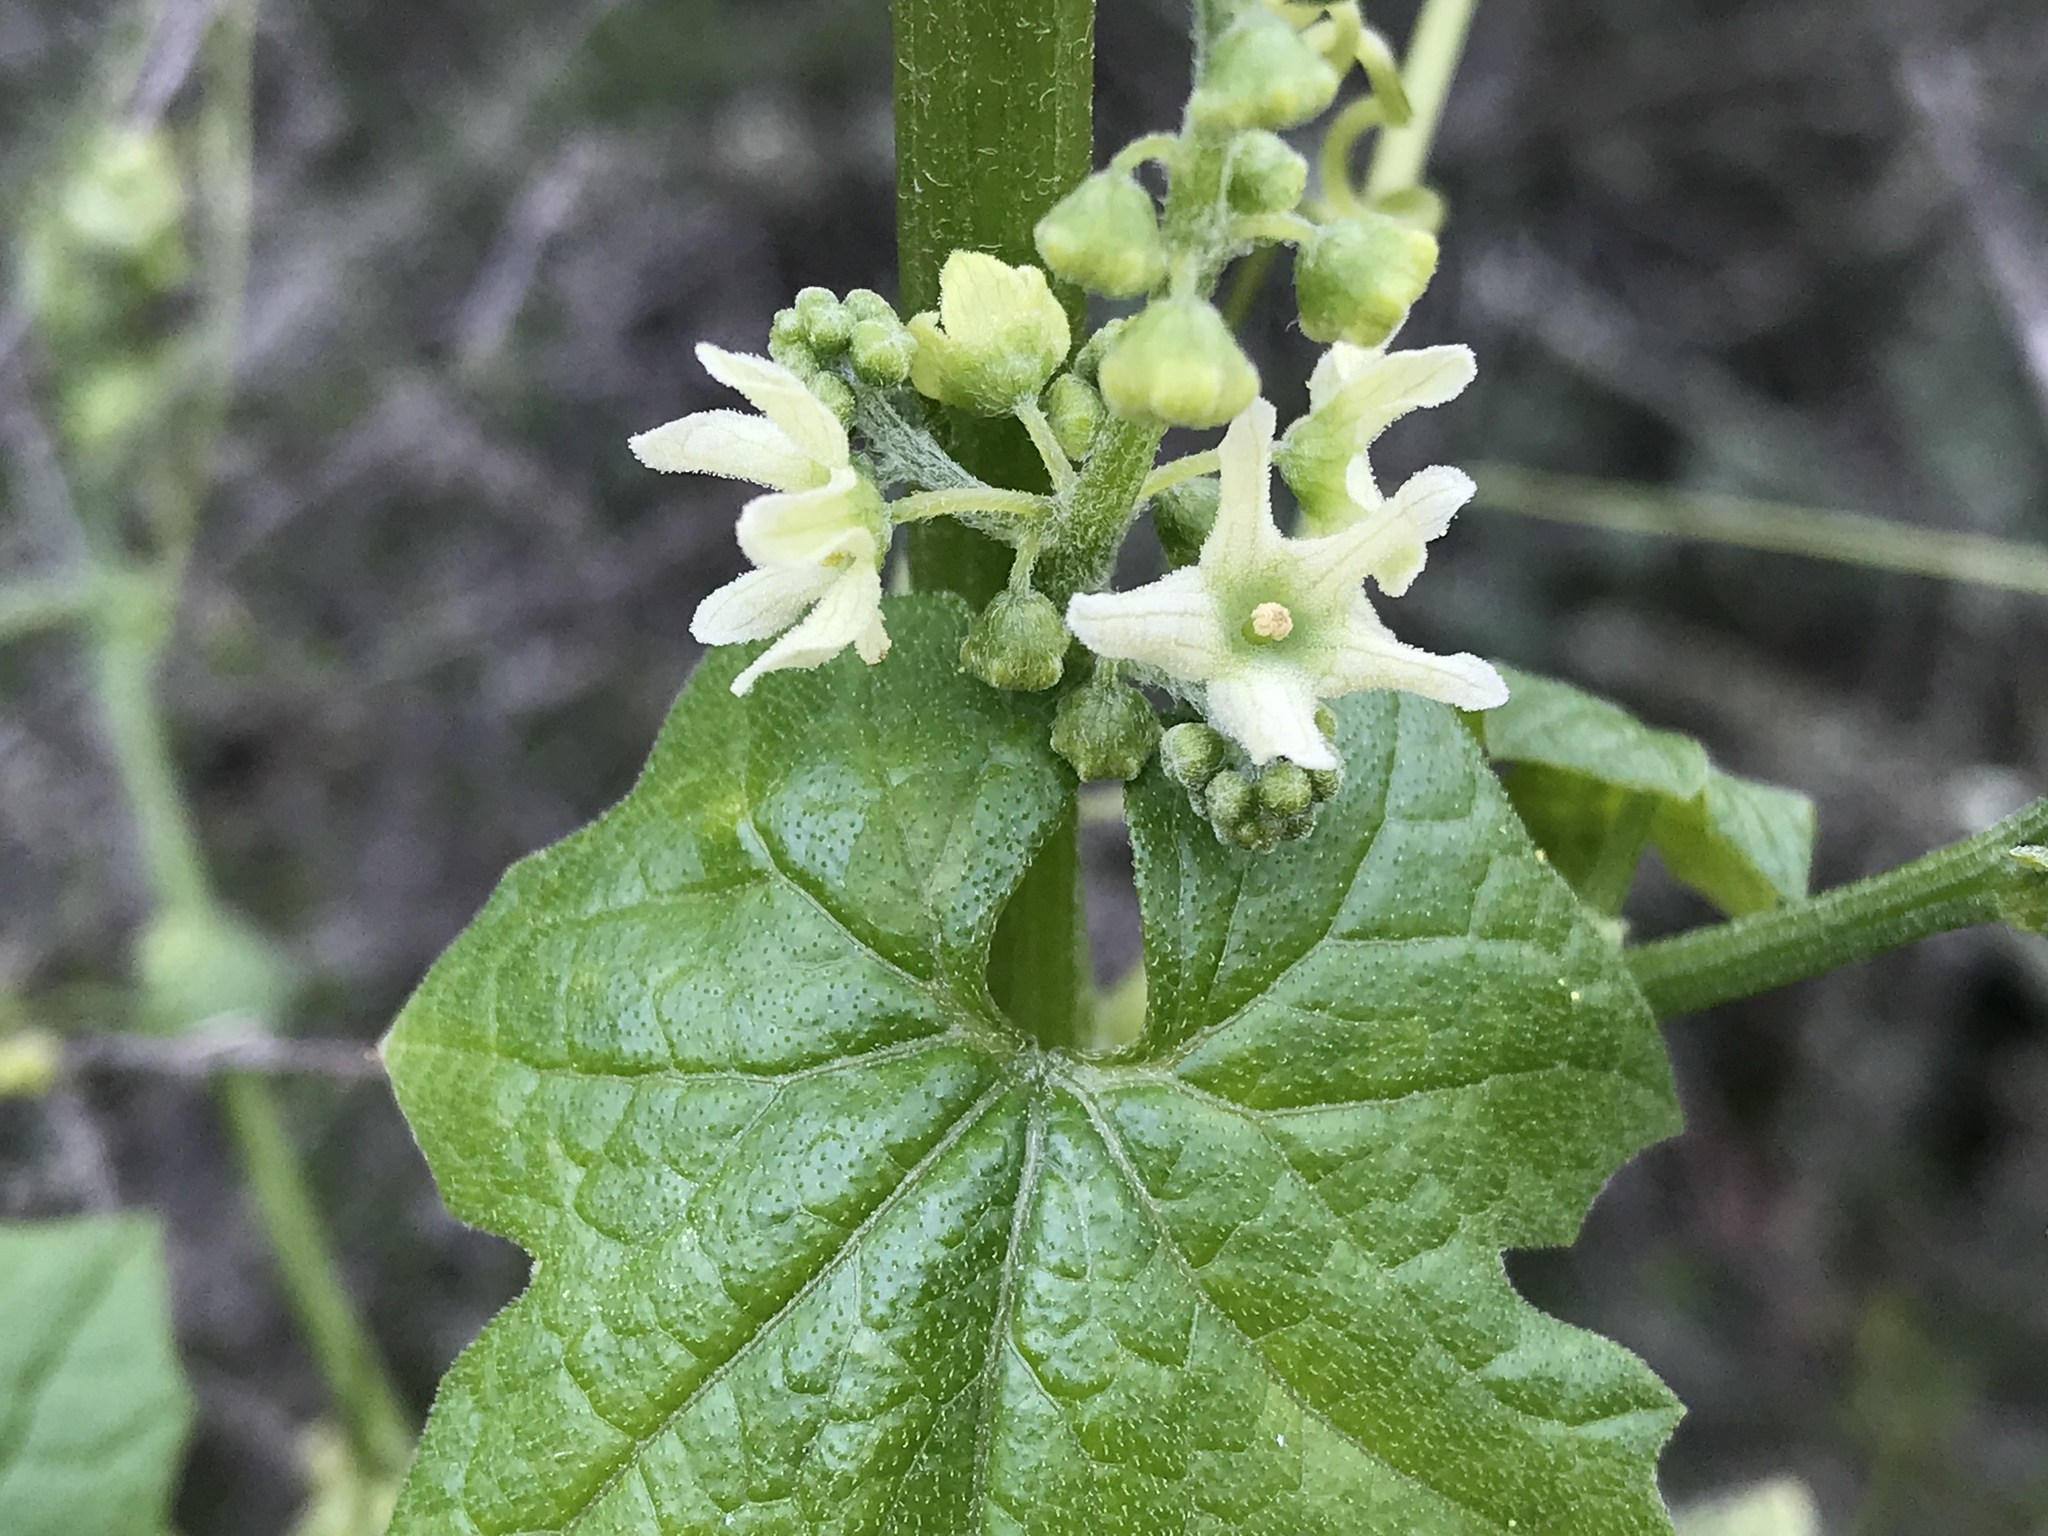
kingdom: Plantae
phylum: Tracheophyta
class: Magnoliopsida
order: Cucurbitales
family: Cucurbitaceae
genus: Marah
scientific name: Marah fabacea
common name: California manroot
